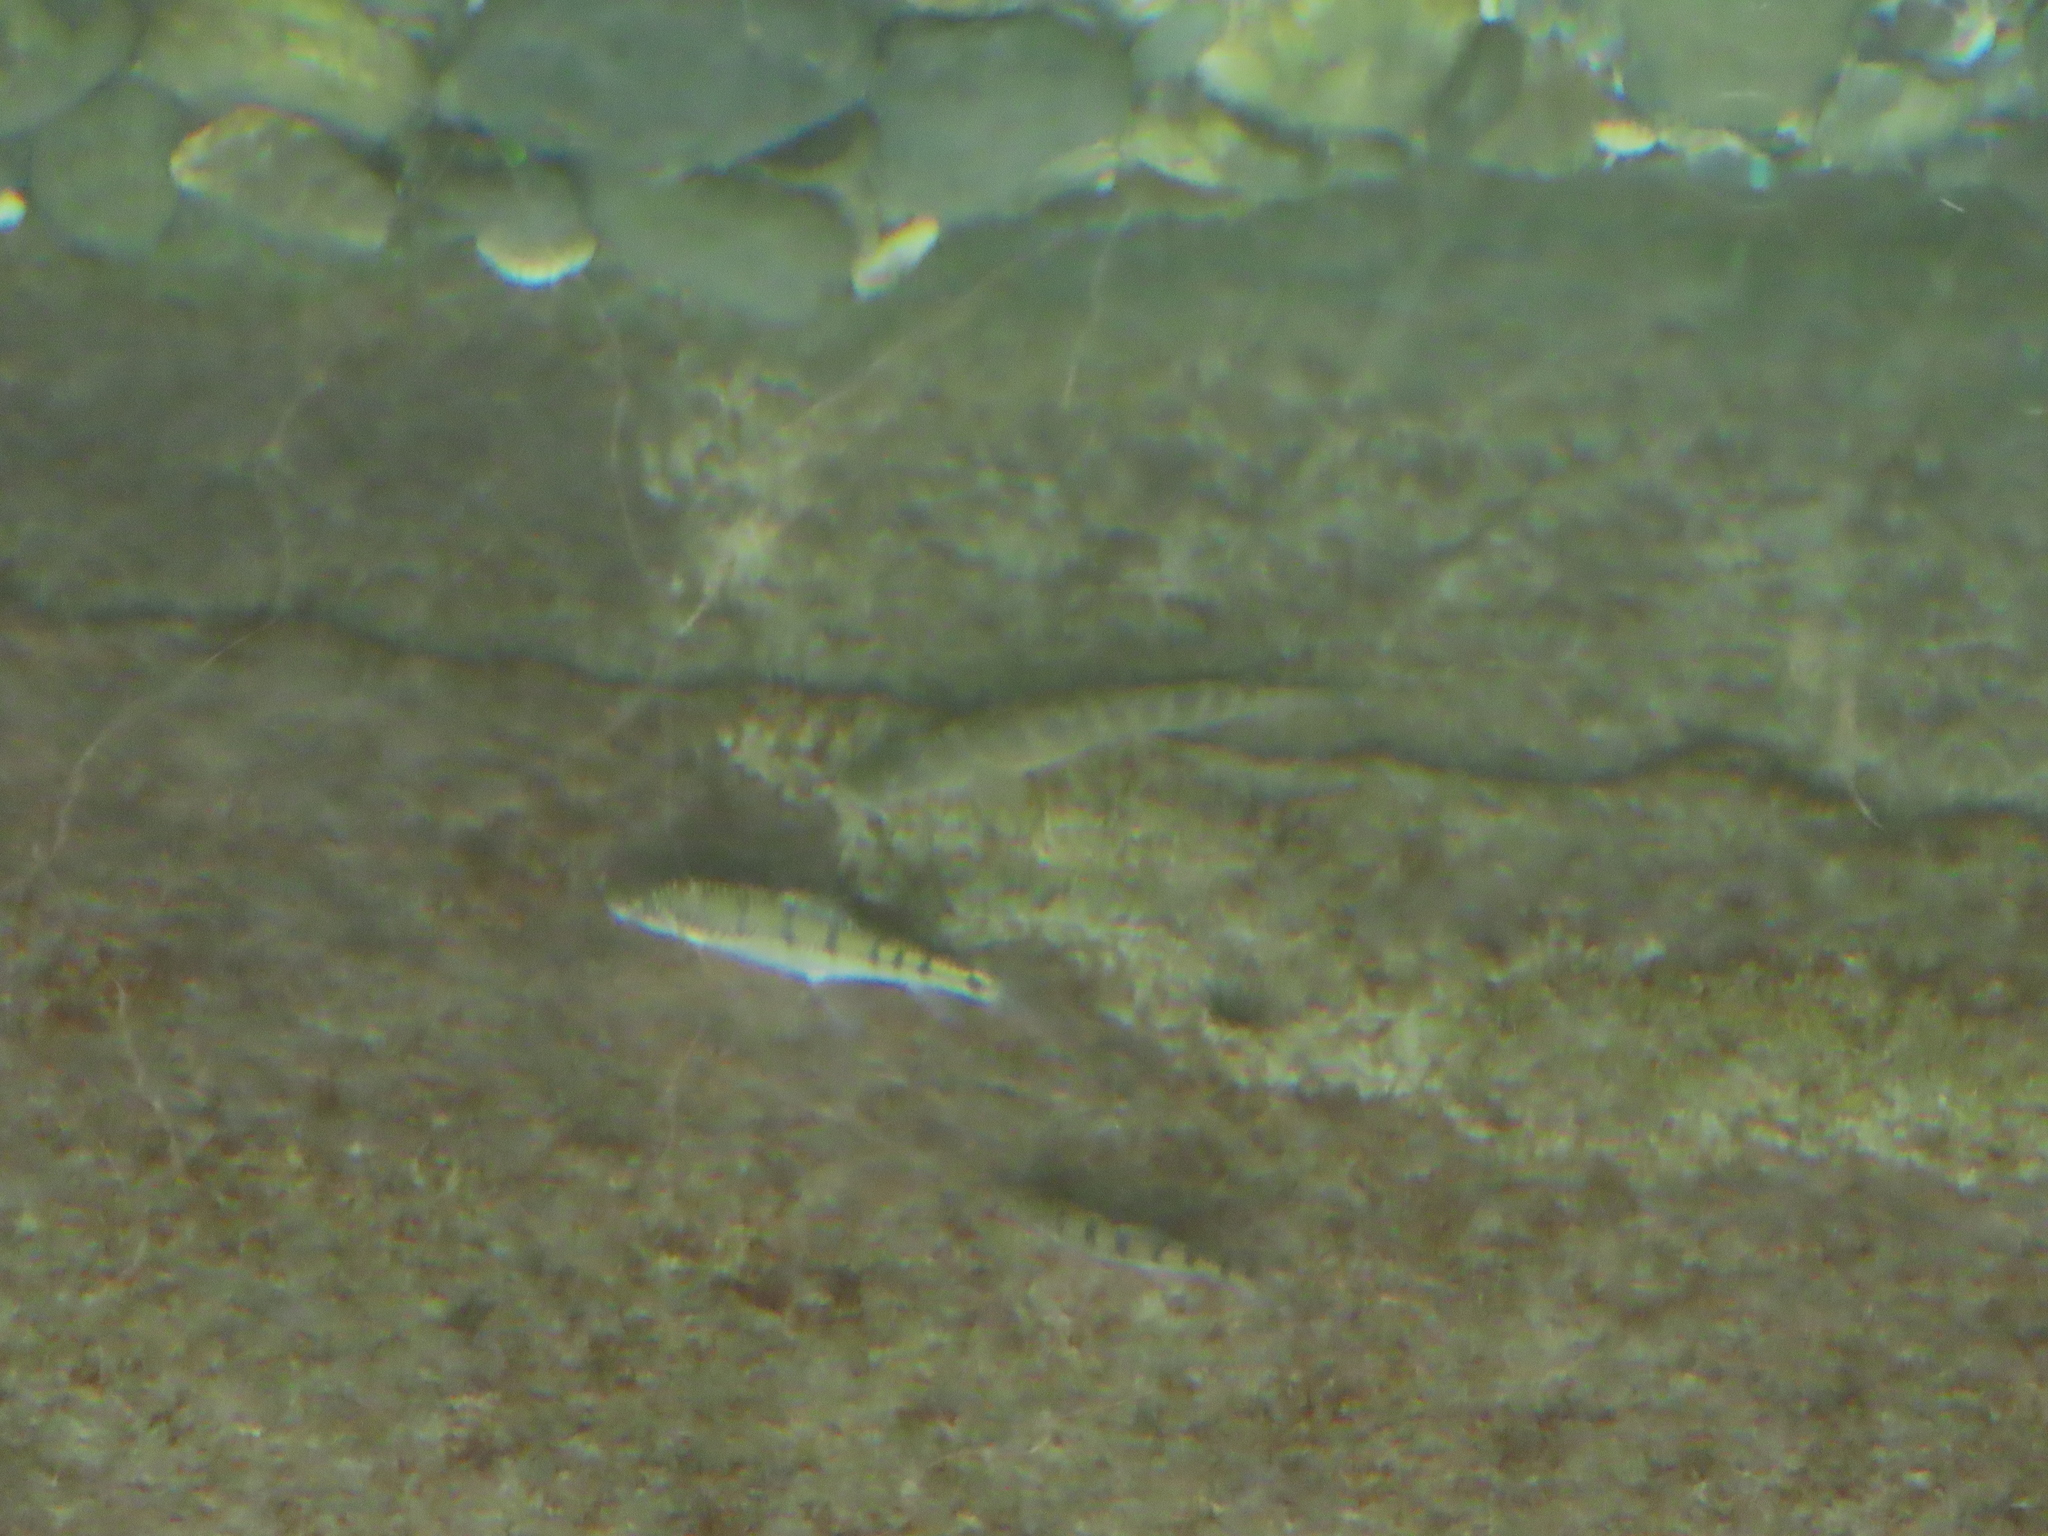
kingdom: Animalia
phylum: Chordata
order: Cypriniformes
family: Cyprinidae
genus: Acrossocheilus
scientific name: Acrossocheilus paradoxus
